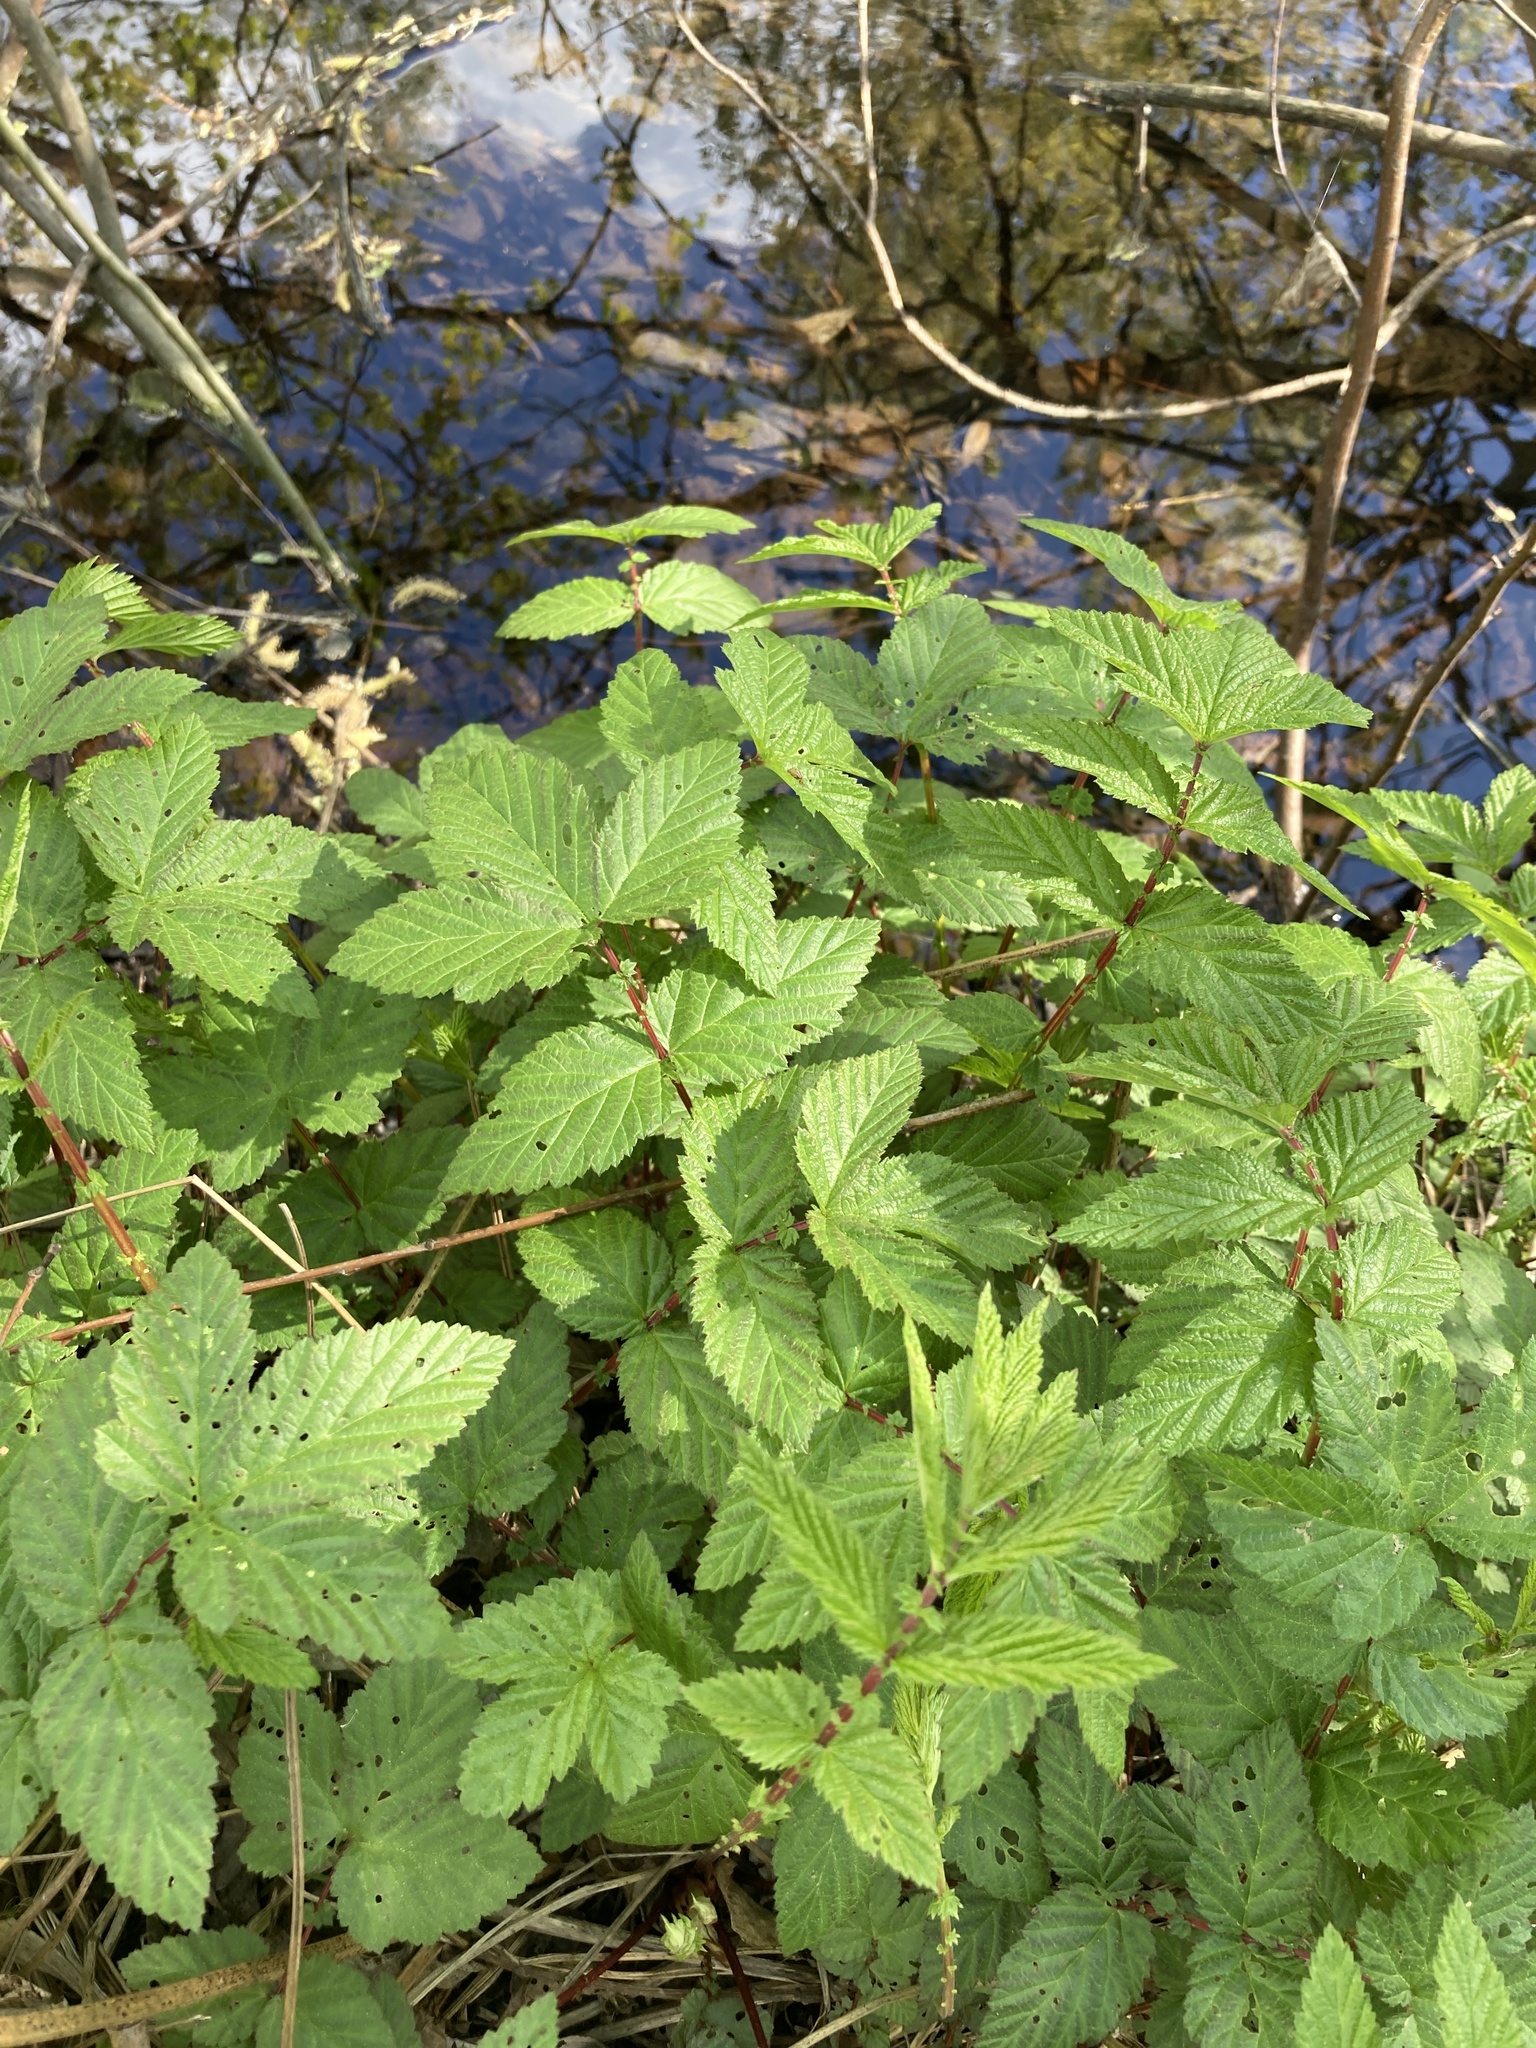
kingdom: Plantae
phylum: Tracheophyta
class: Magnoliopsida
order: Rosales
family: Rosaceae
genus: Filipendula
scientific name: Filipendula ulmaria
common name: Meadowsweet
